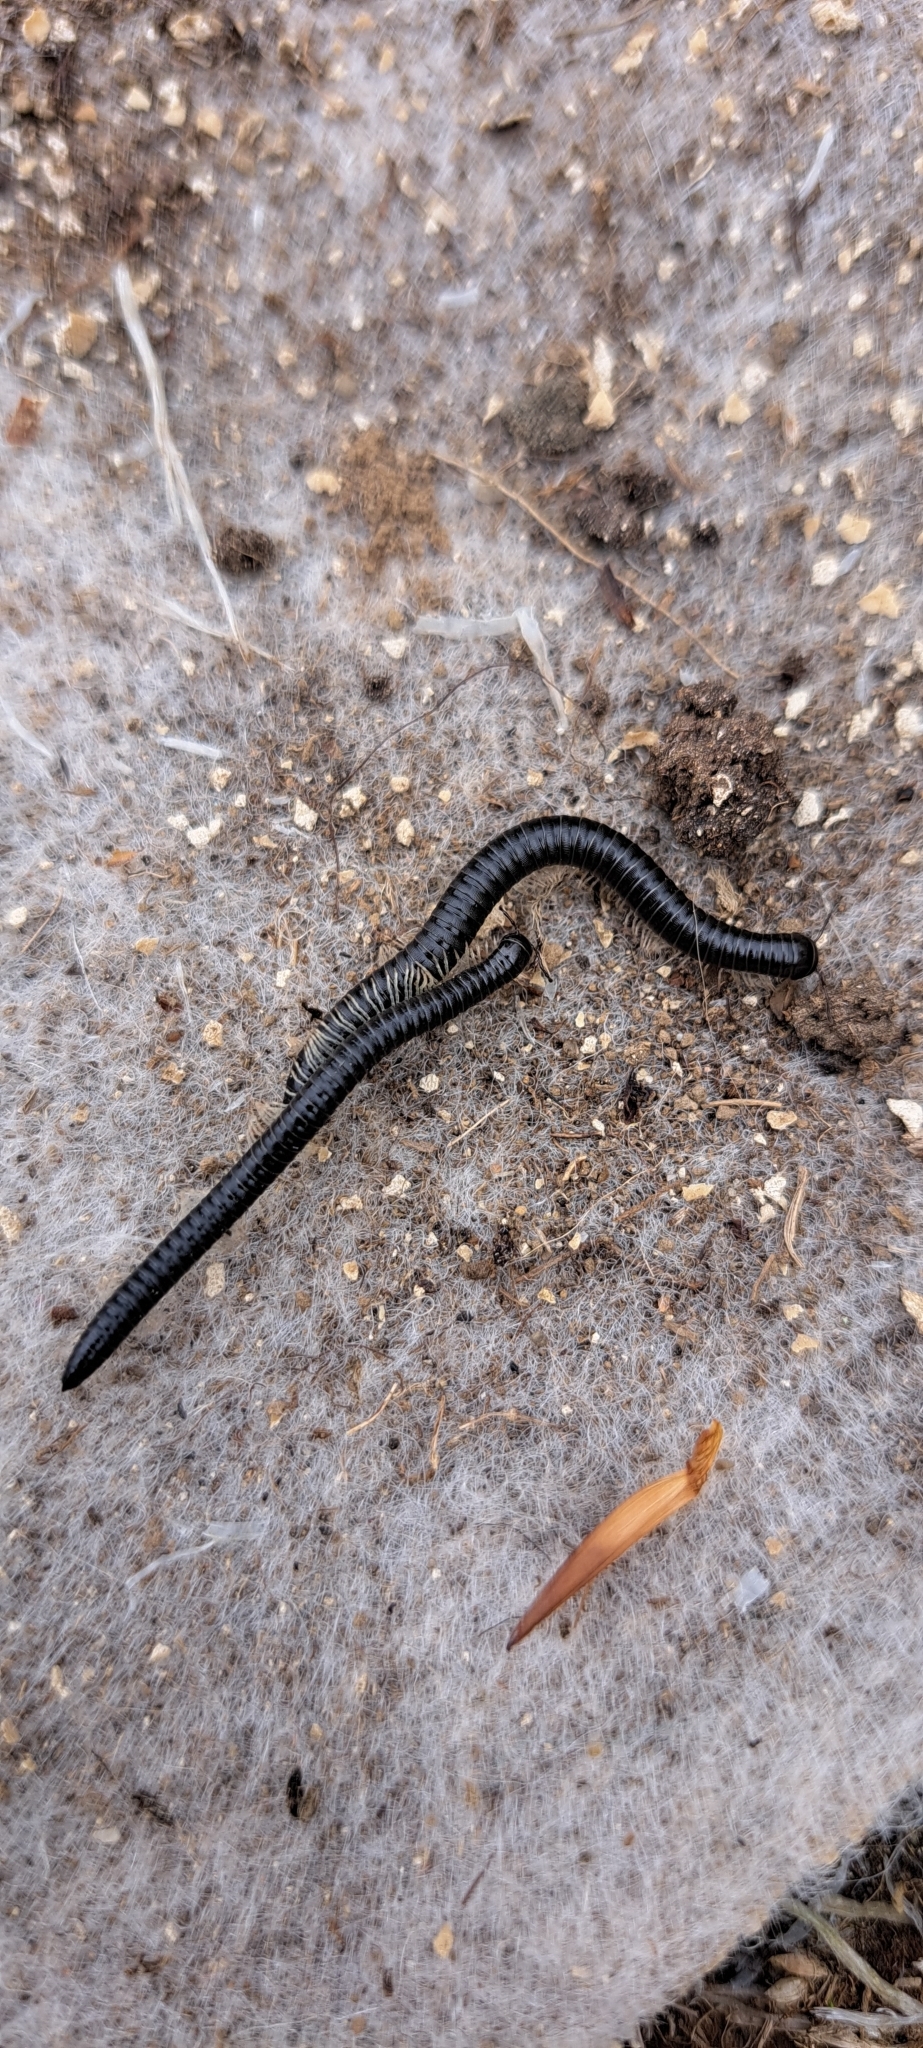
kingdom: Animalia
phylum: Arthropoda
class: Diplopoda
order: Julida
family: Julidae
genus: Tachypodoiulus
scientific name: Tachypodoiulus niger
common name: White-legged snake millipede
